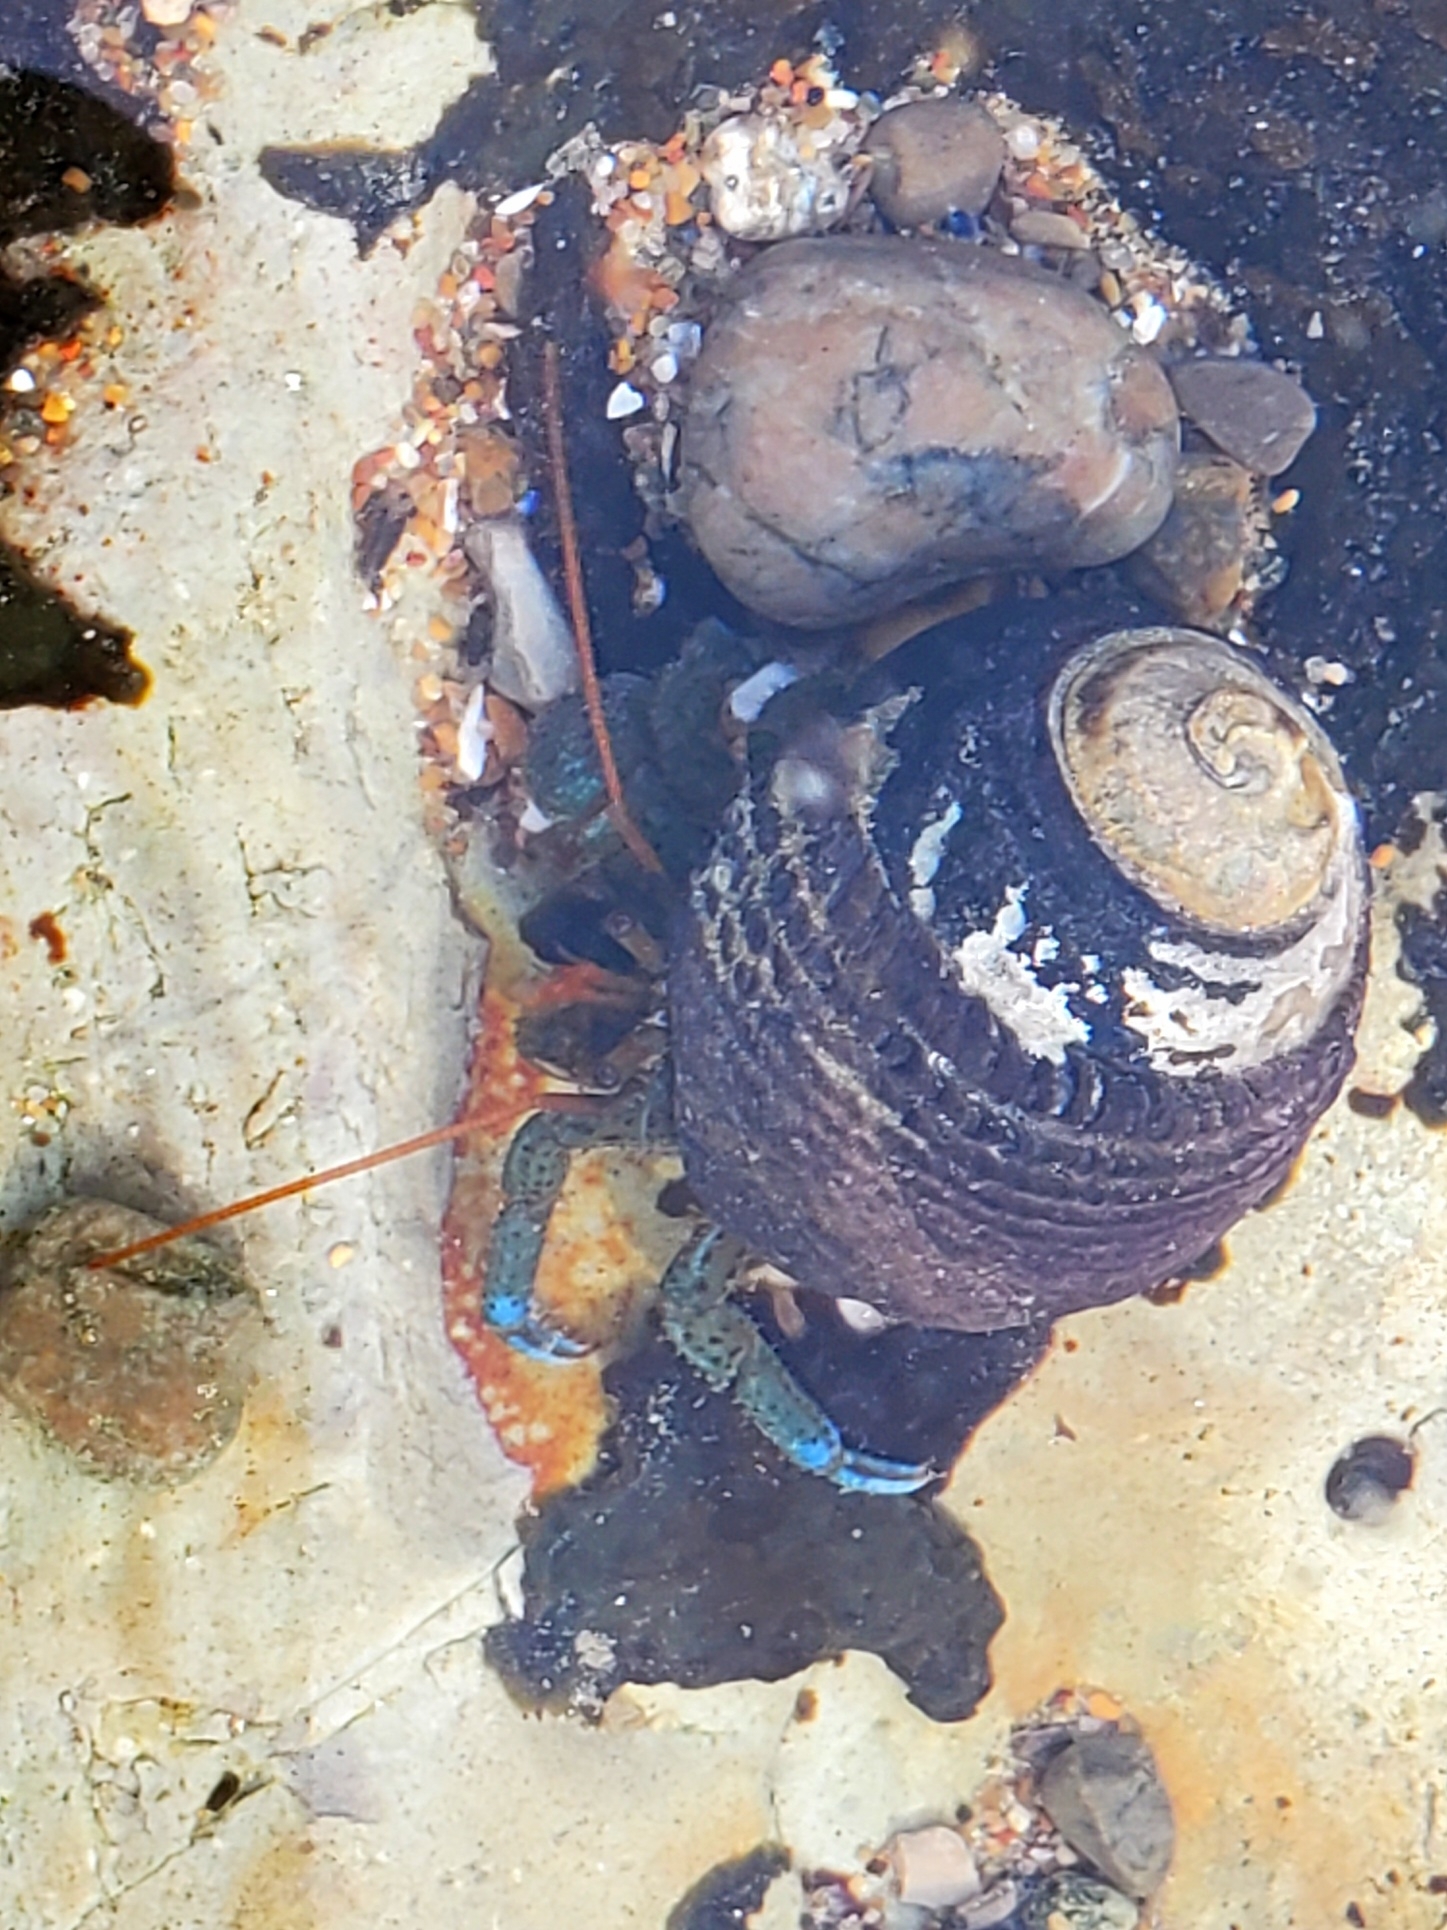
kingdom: Animalia
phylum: Arthropoda
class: Malacostraca
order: Decapoda
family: Paguridae
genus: Pagurus
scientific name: Pagurus samuelis
